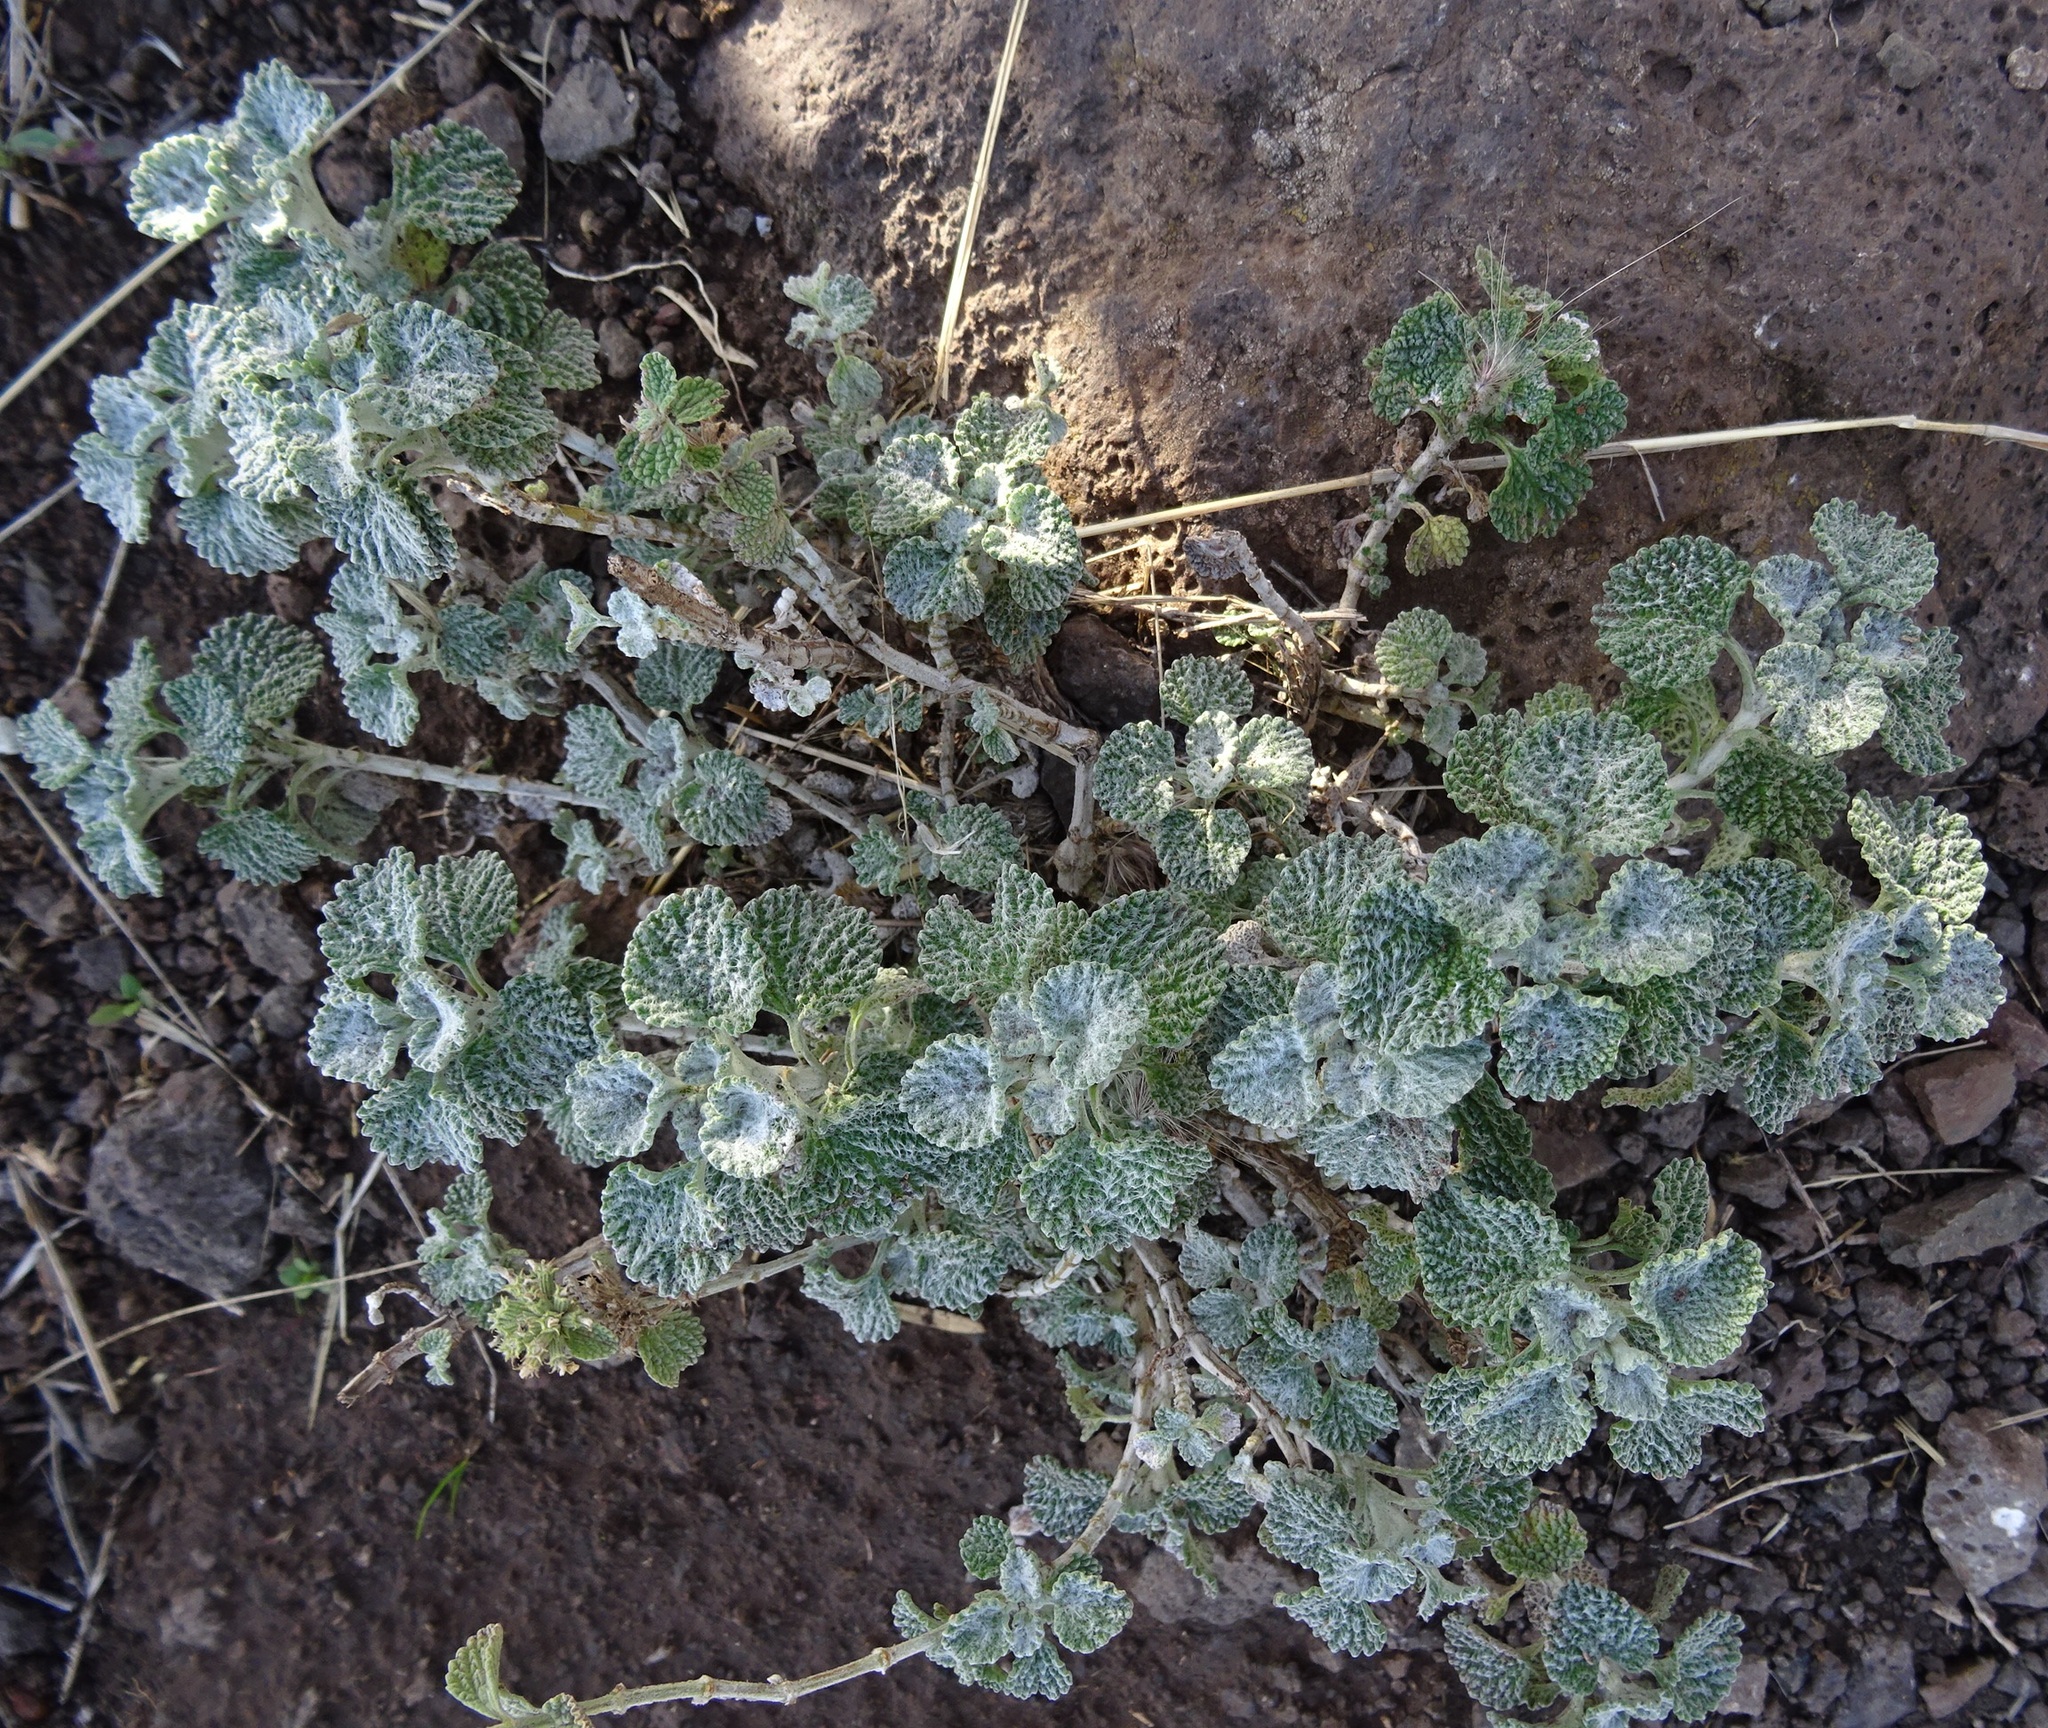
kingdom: Plantae
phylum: Tracheophyta
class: Magnoliopsida
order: Lamiales
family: Lamiaceae
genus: Marrubium
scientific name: Marrubium vulgare
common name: Horehound
